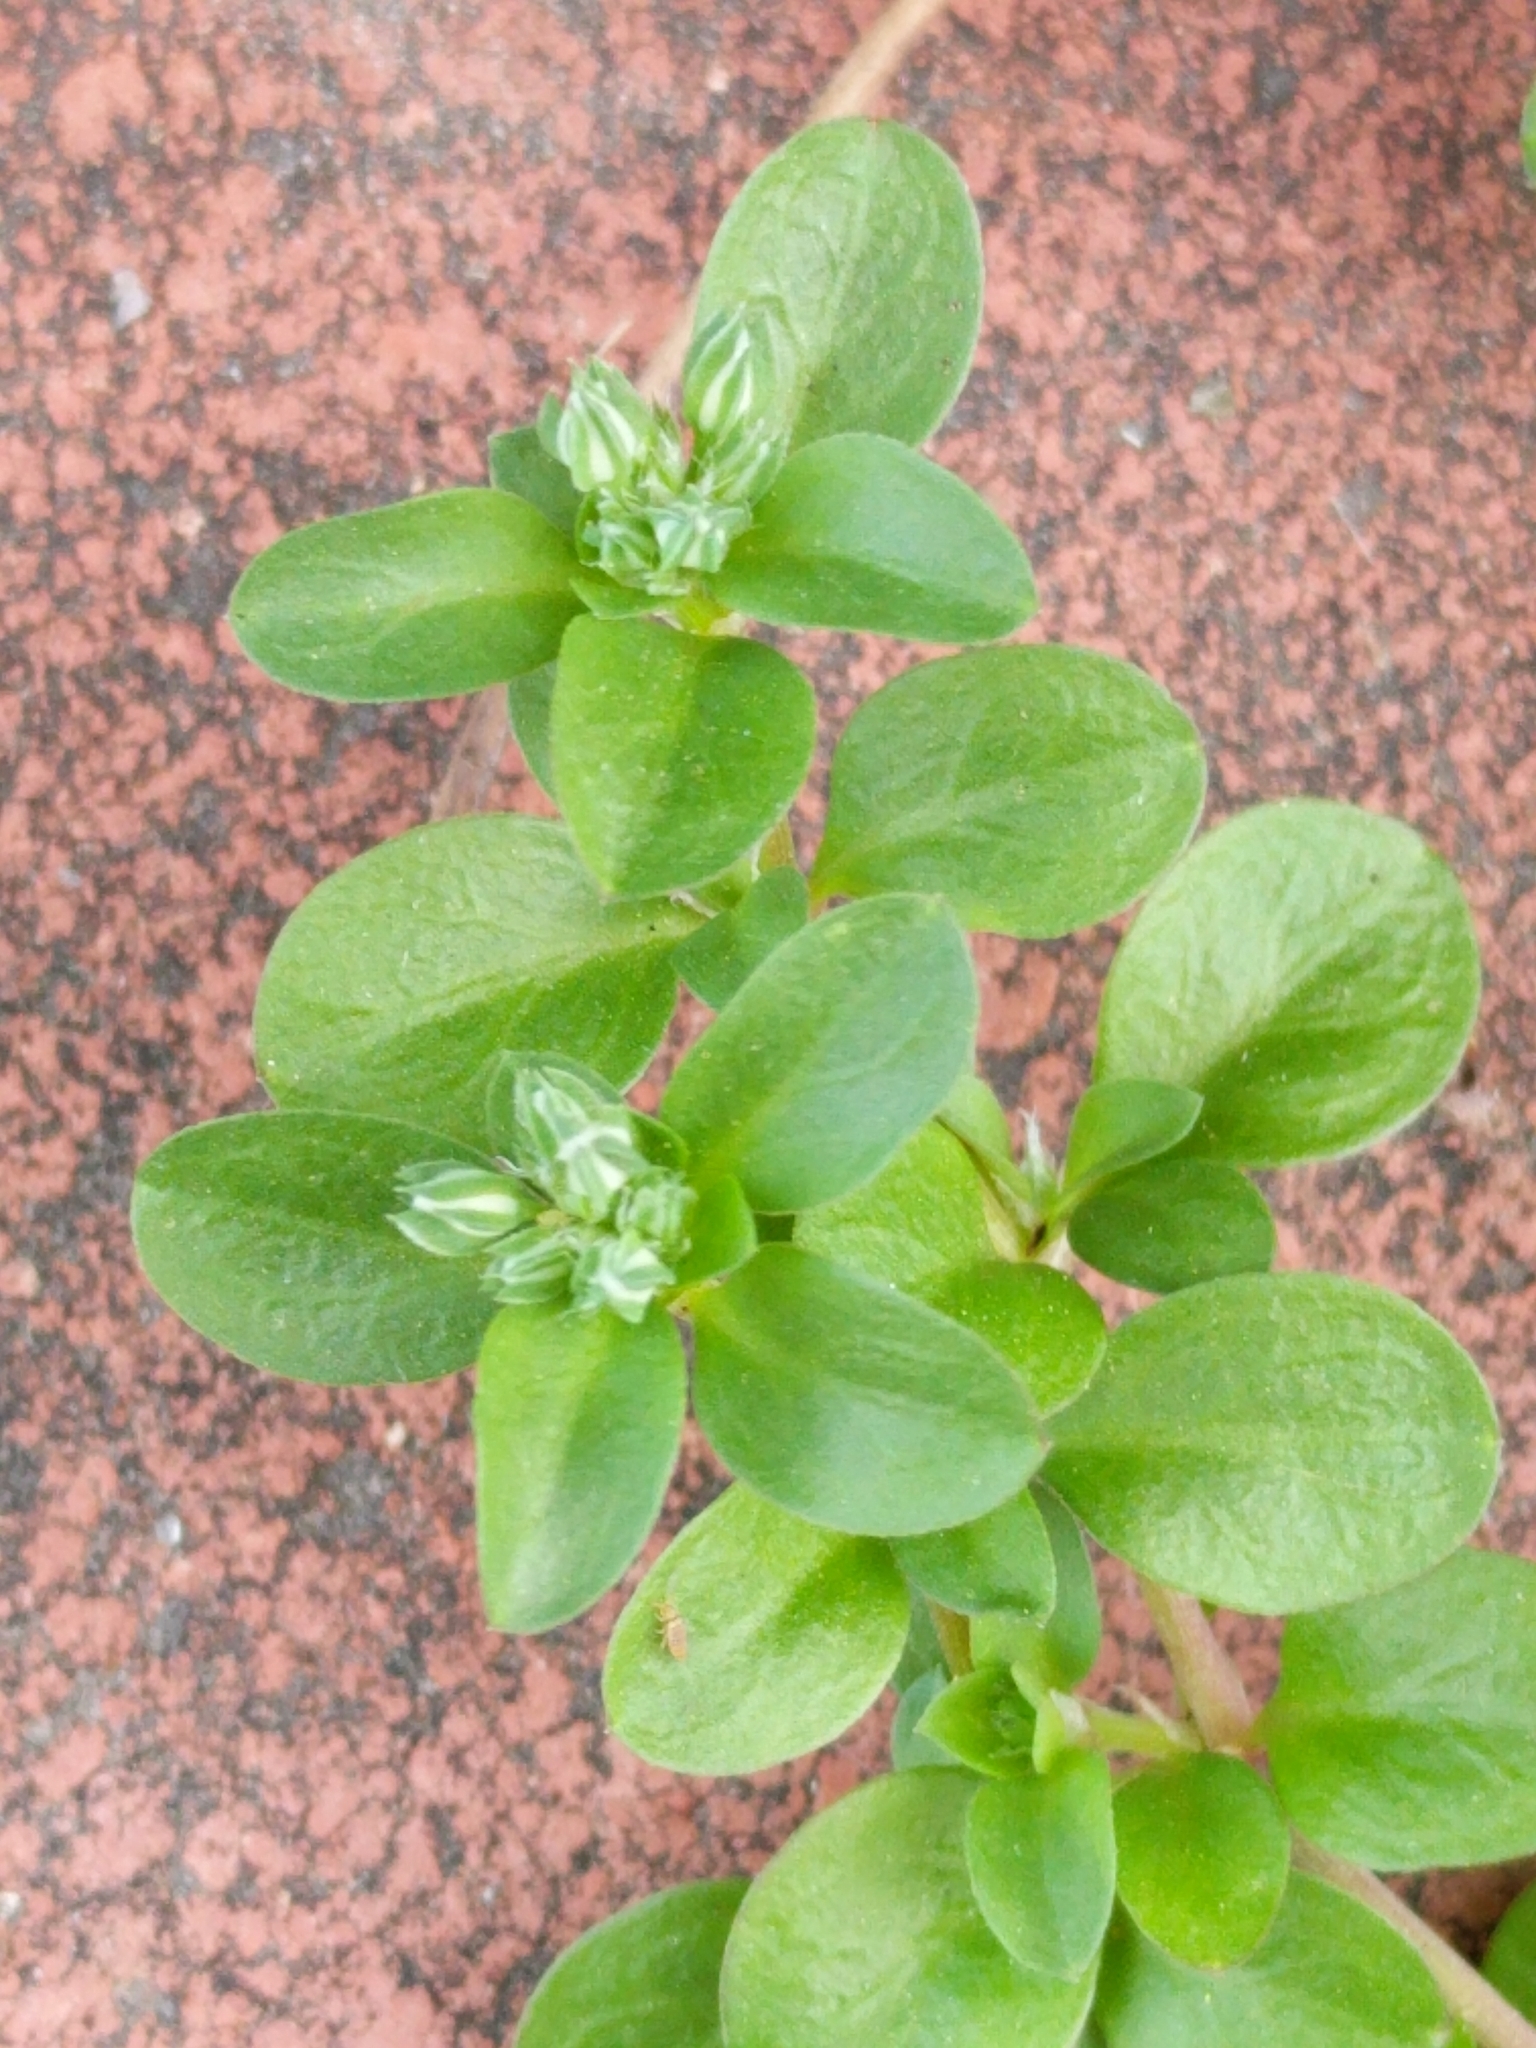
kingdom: Plantae
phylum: Tracheophyta
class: Magnoliopsida
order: Caryophyllales
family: Caryophyllaceae
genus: Polycarpon
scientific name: Polycarpon tetraphyllum
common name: Four-leaved all-seed
